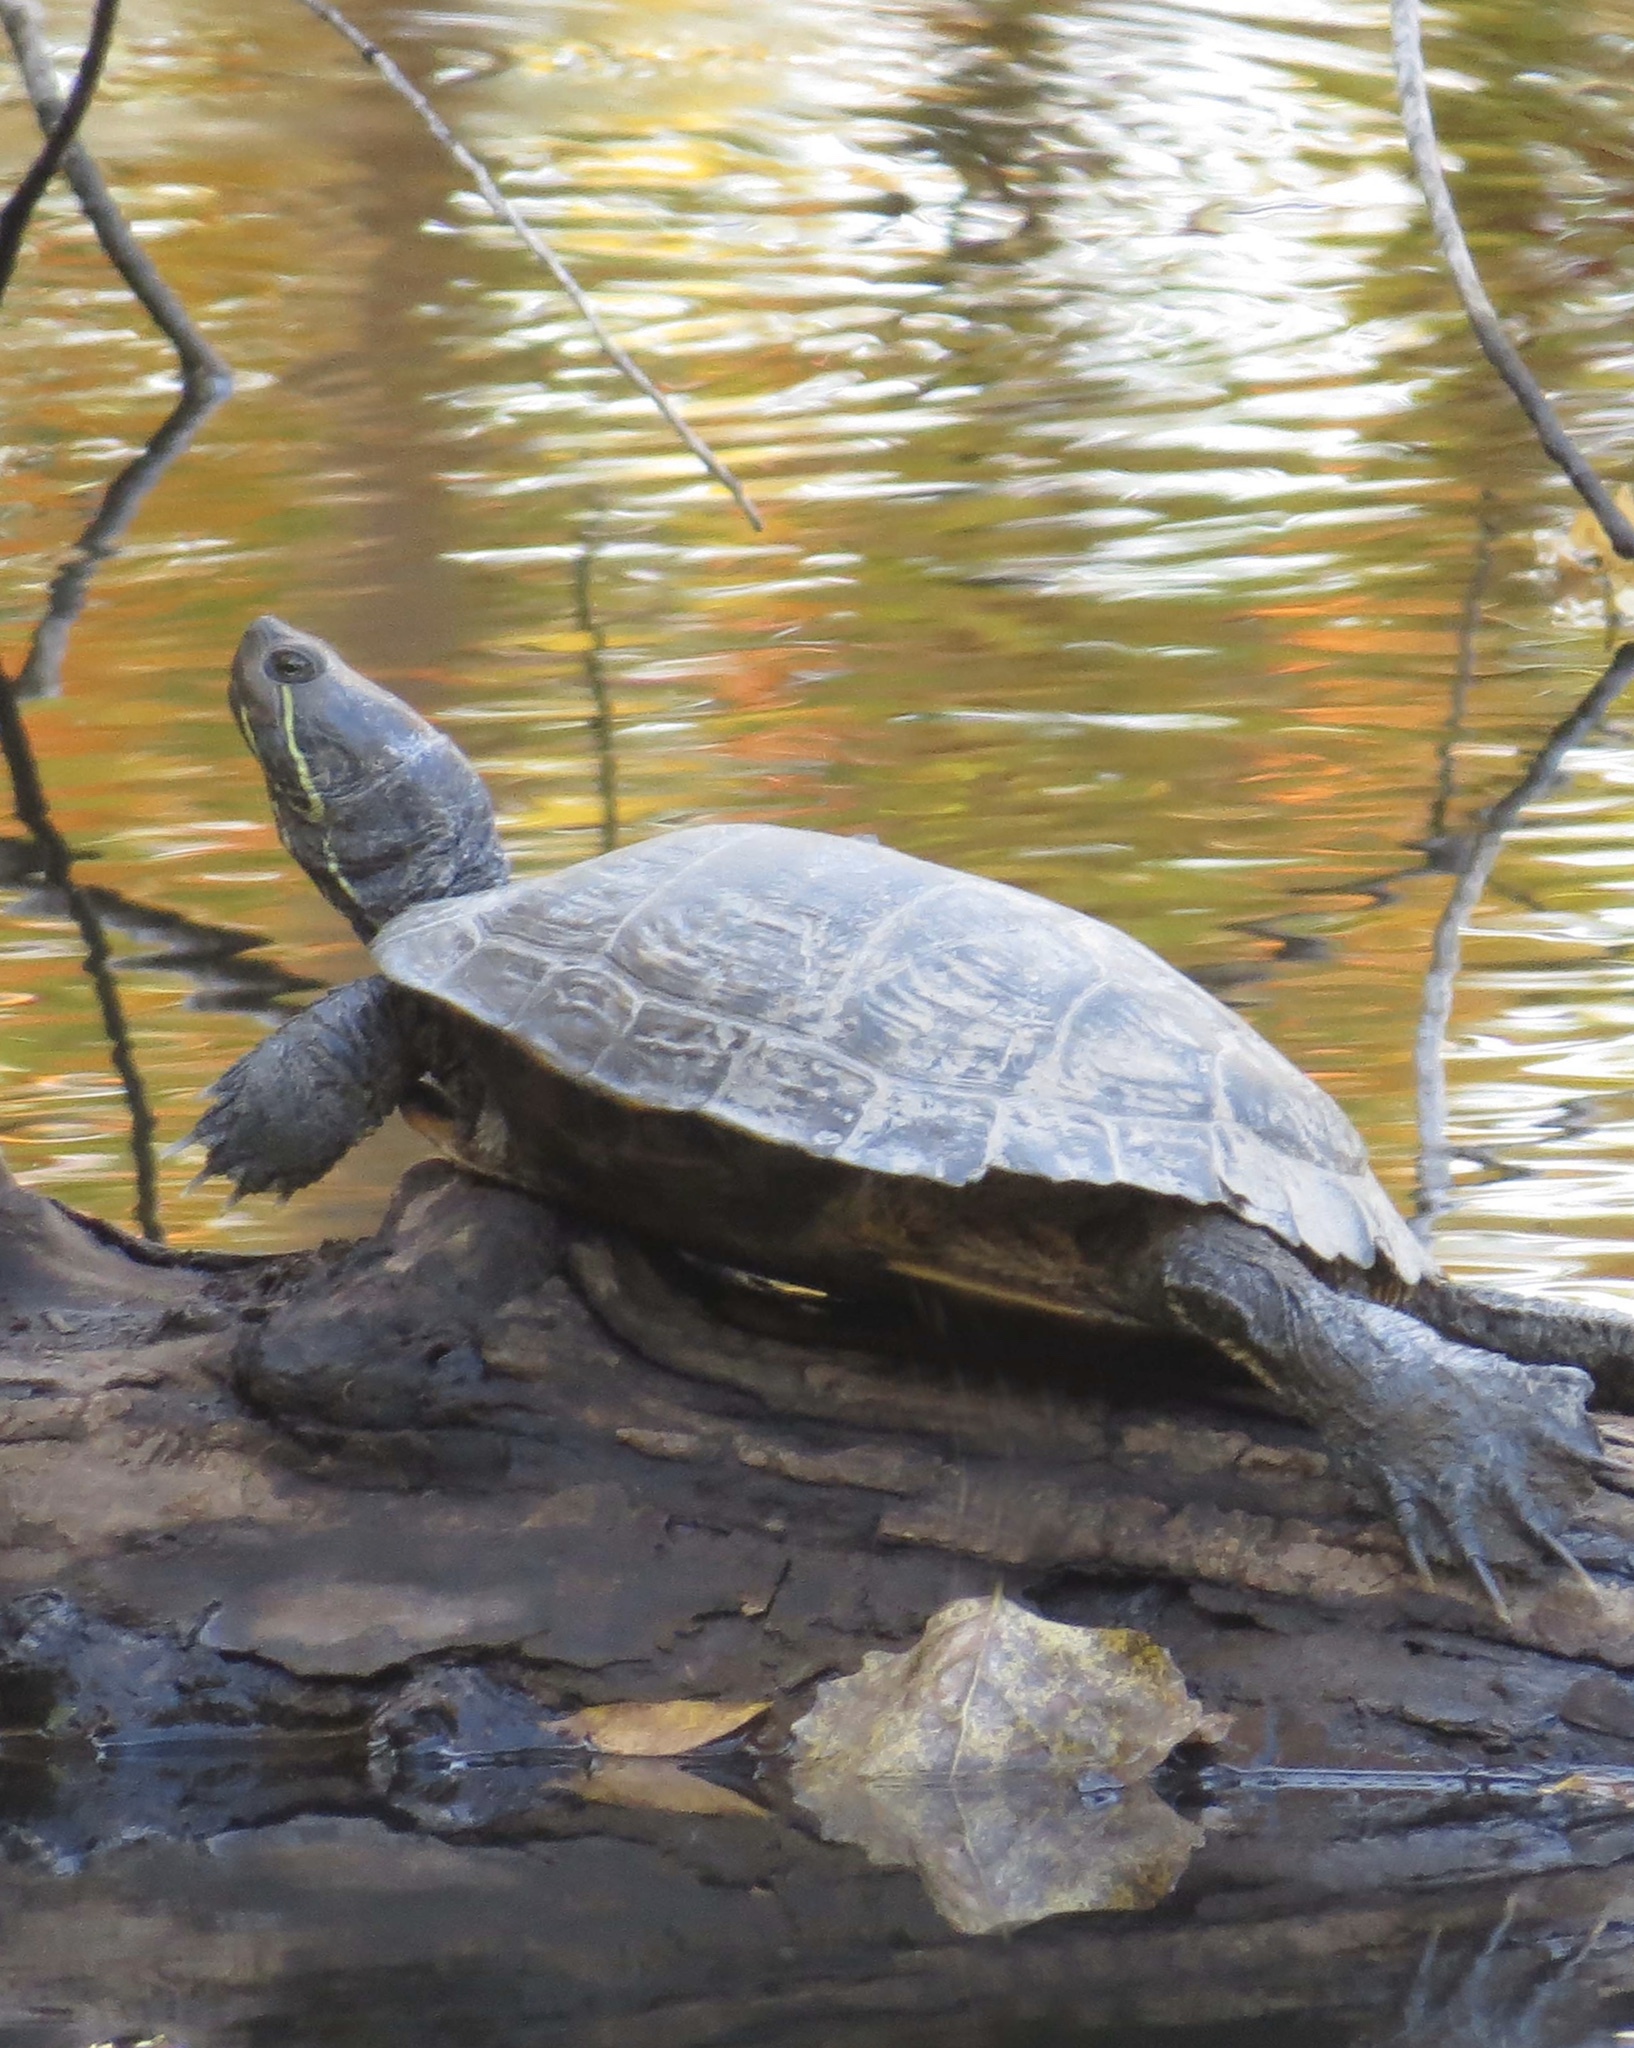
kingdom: Animalia
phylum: Chordata
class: Testudines
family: Emydidae
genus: Trachemys
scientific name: Trachemys scripta
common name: Slider
